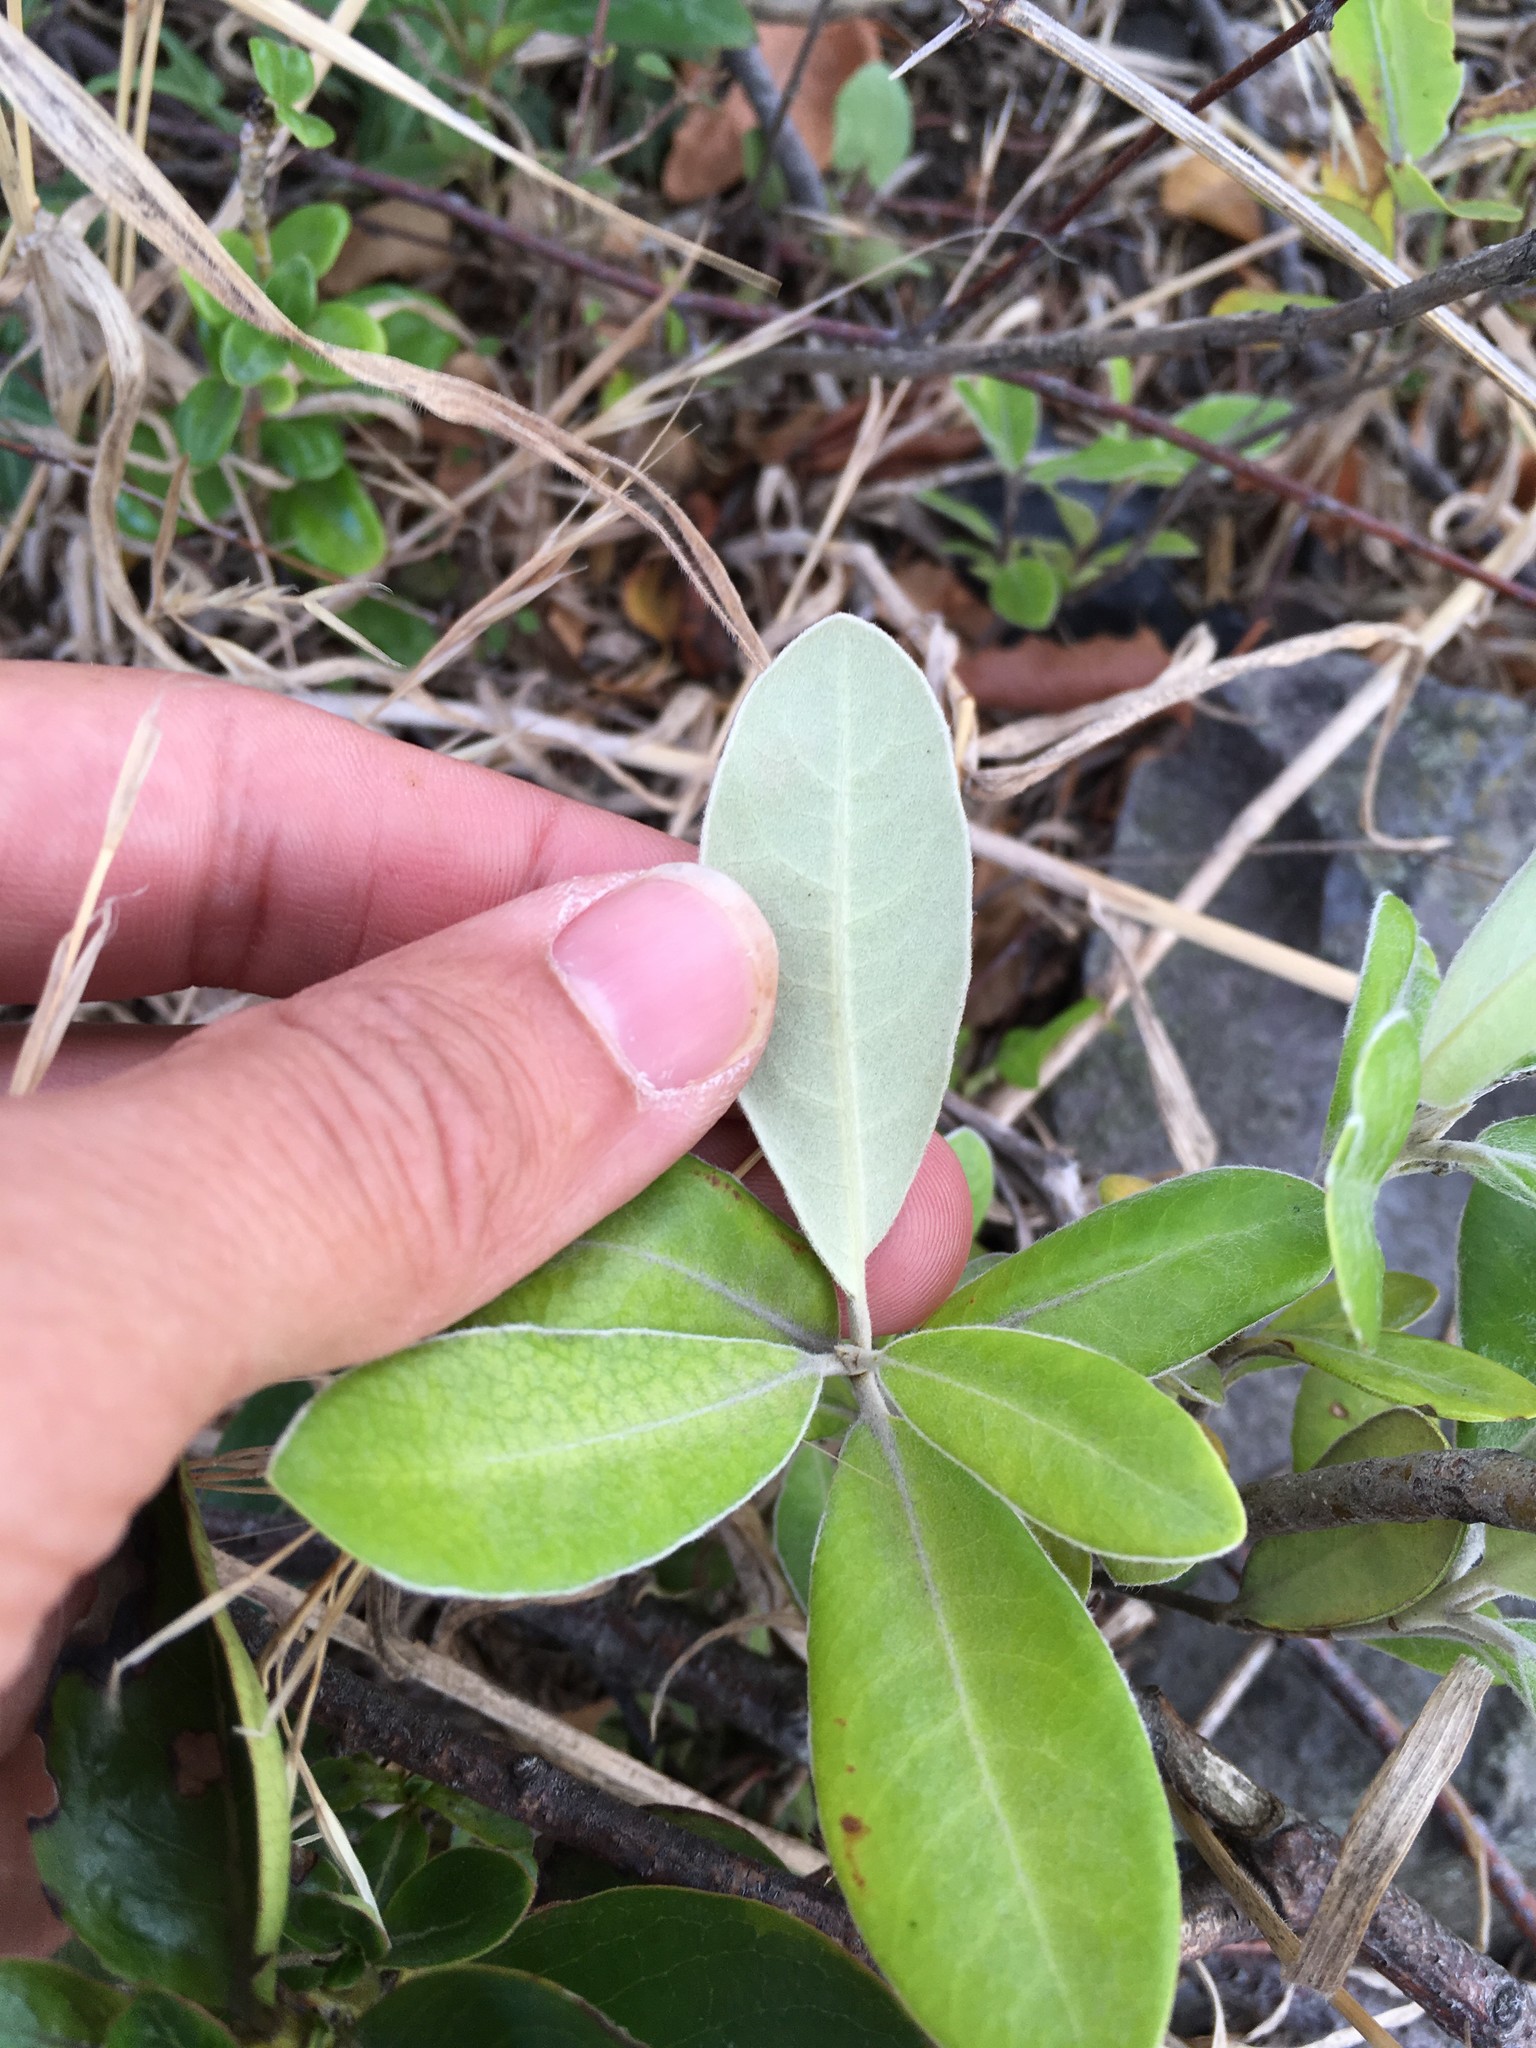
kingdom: Plantae
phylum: Tracheophyta
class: Magnoliopsida
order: Apiales
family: Pittosporaceae
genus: Pittosporum
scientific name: Pittosporum ralphii
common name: Ralph's desertwillow
